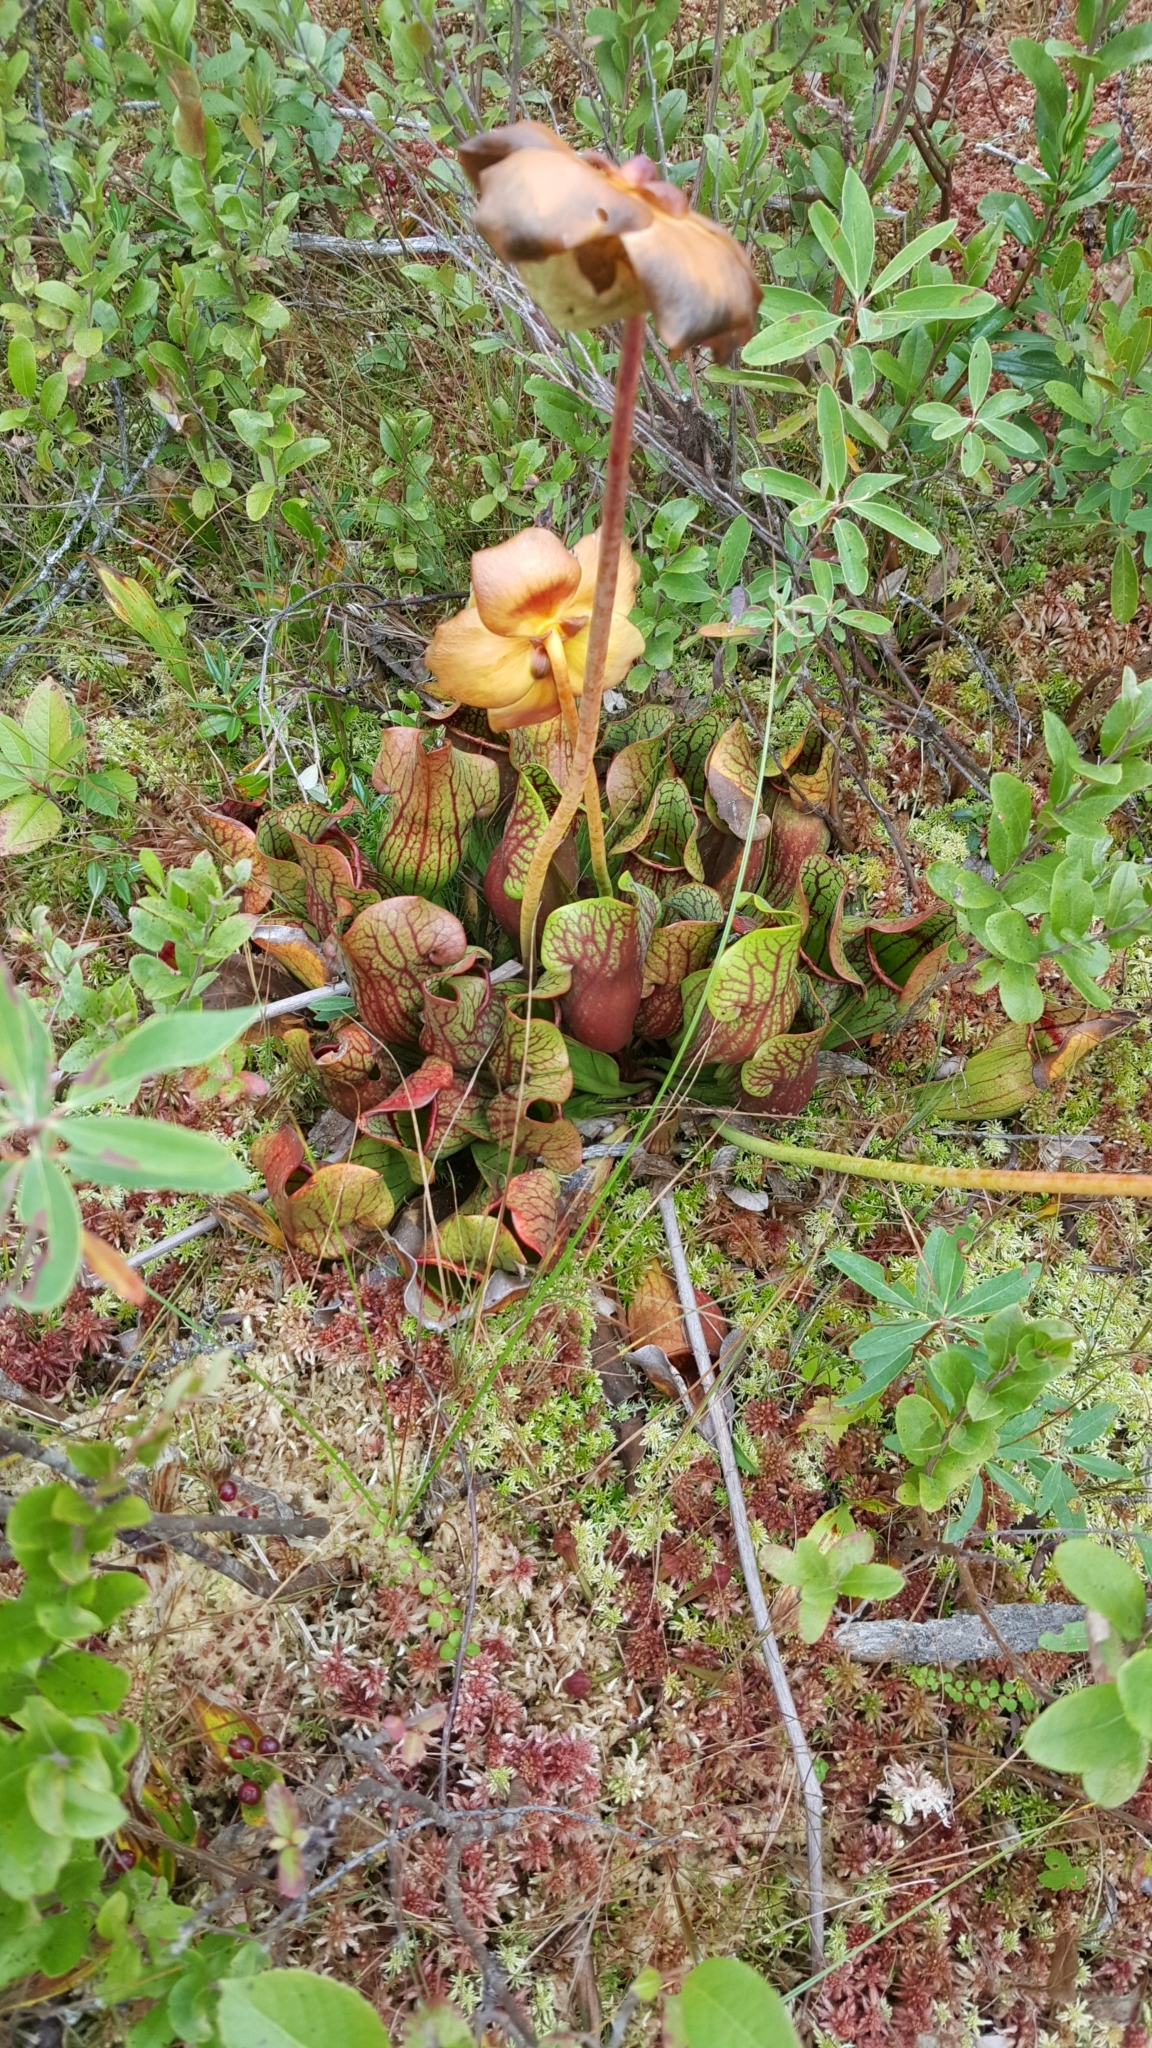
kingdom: Plantae
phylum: Tracheophyta
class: Magnoliopsida
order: Ericales
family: Sarraceniaceae
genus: Sarracenia
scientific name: Sarracenia purpurea
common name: Pitcherplant
